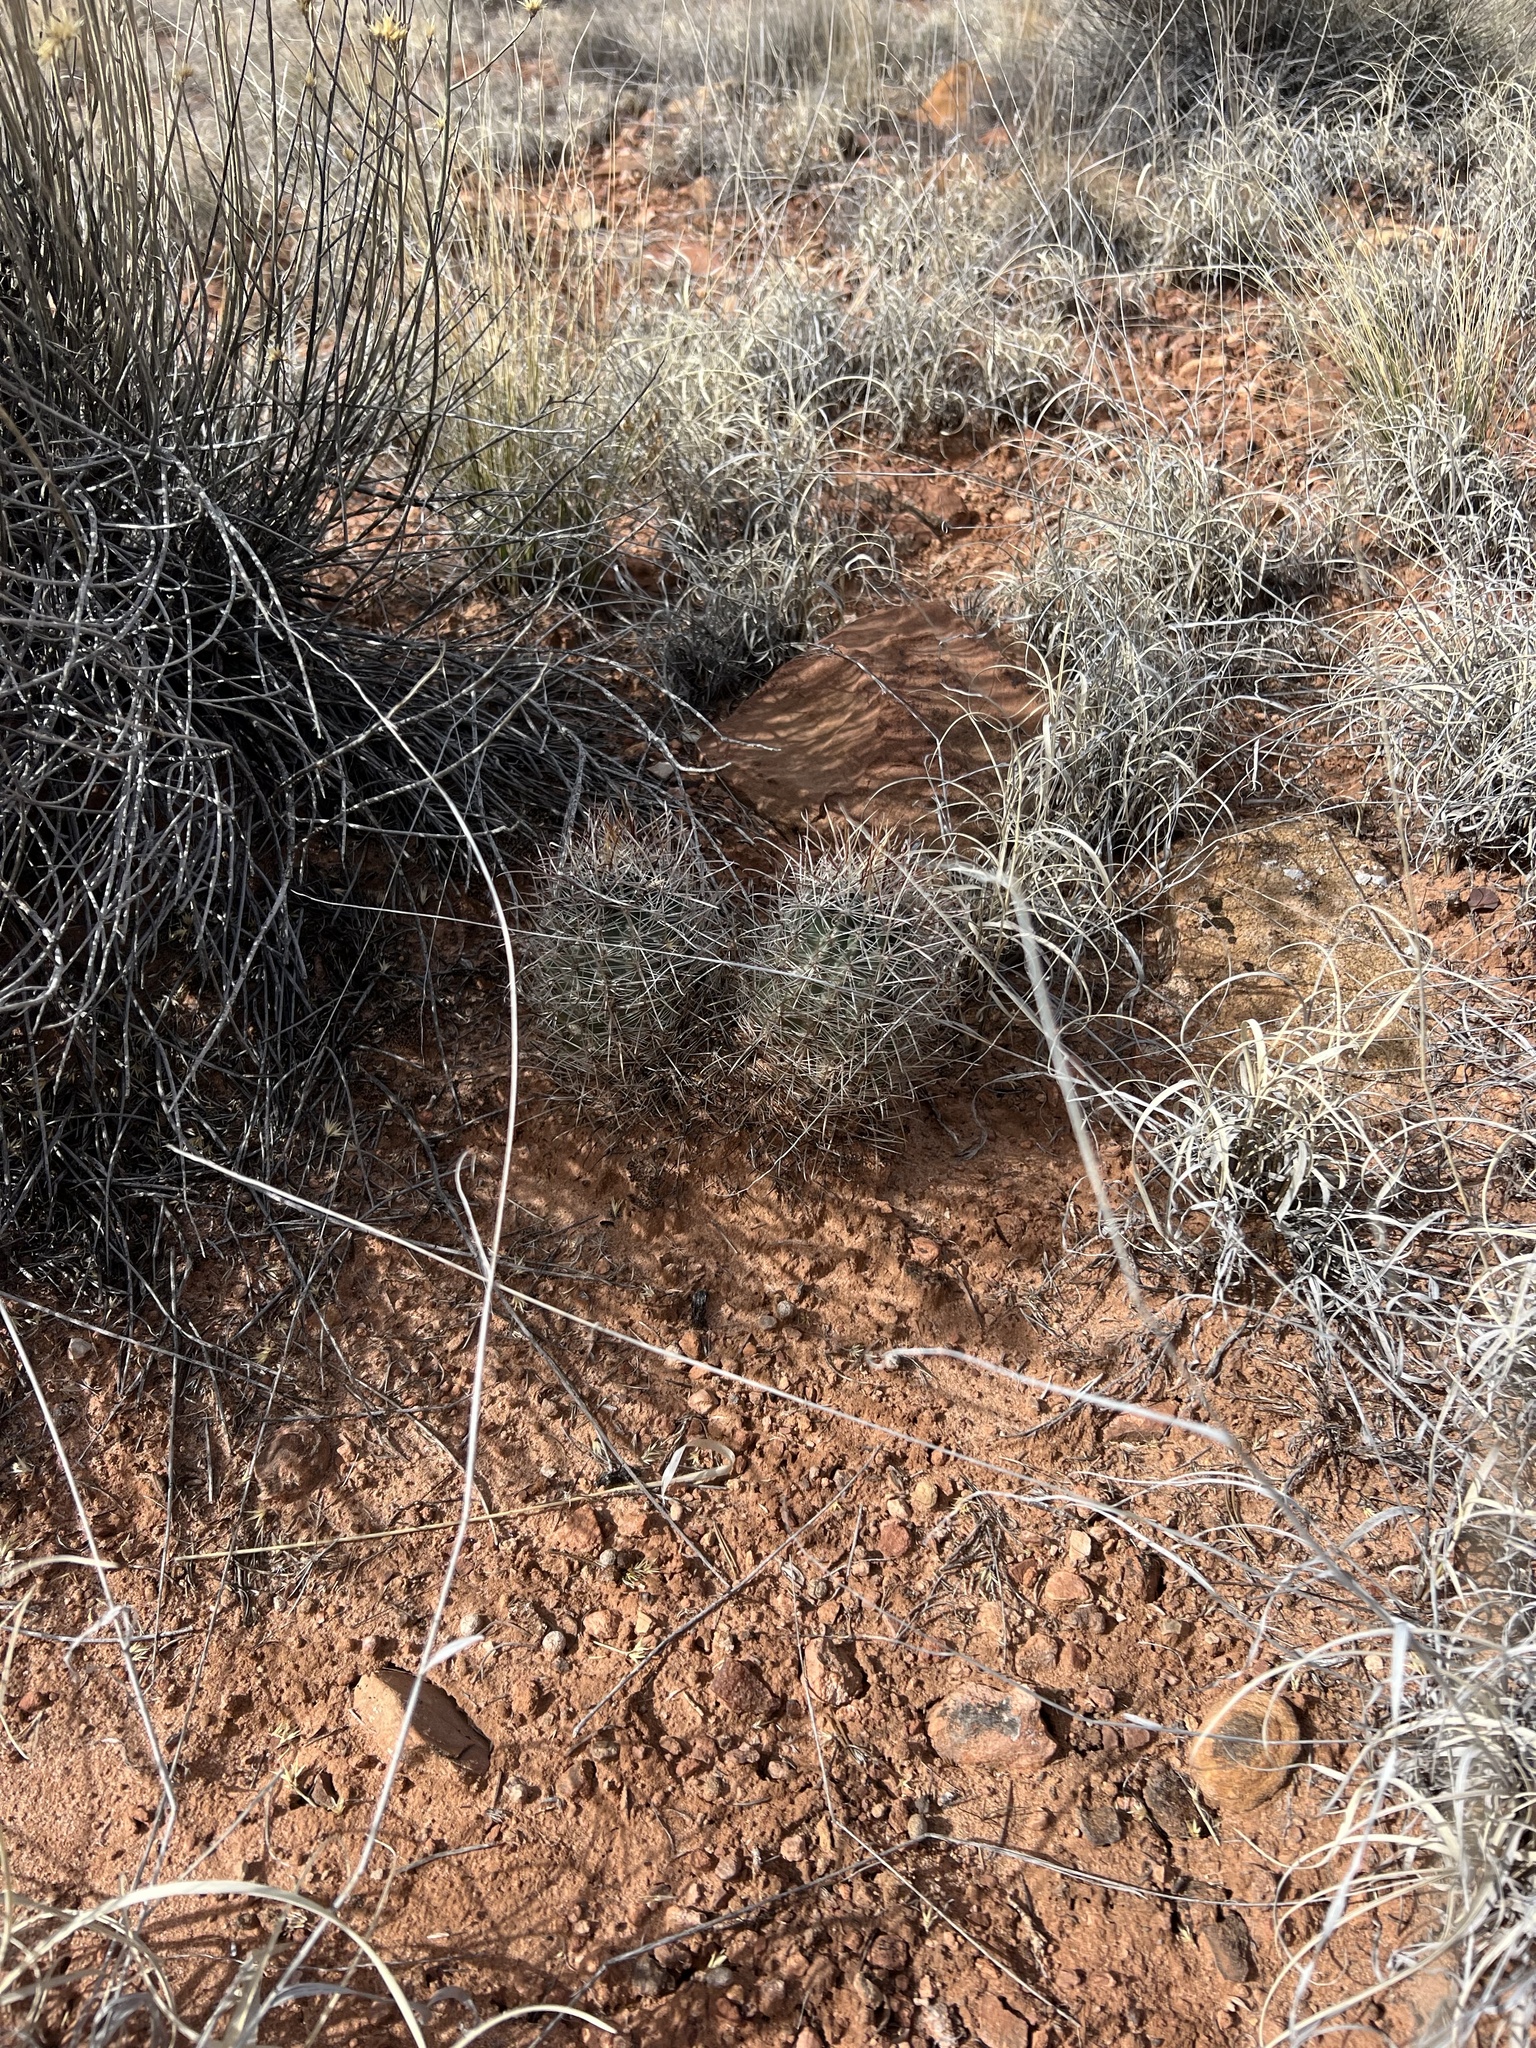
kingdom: Plantae
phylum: Tracheophyta
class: Magnoliopsida
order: Caryophyllales
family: Cactaceae
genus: Sclerocactus
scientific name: Sclerocactus parviflorus
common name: Small-flower fishhook cactus
